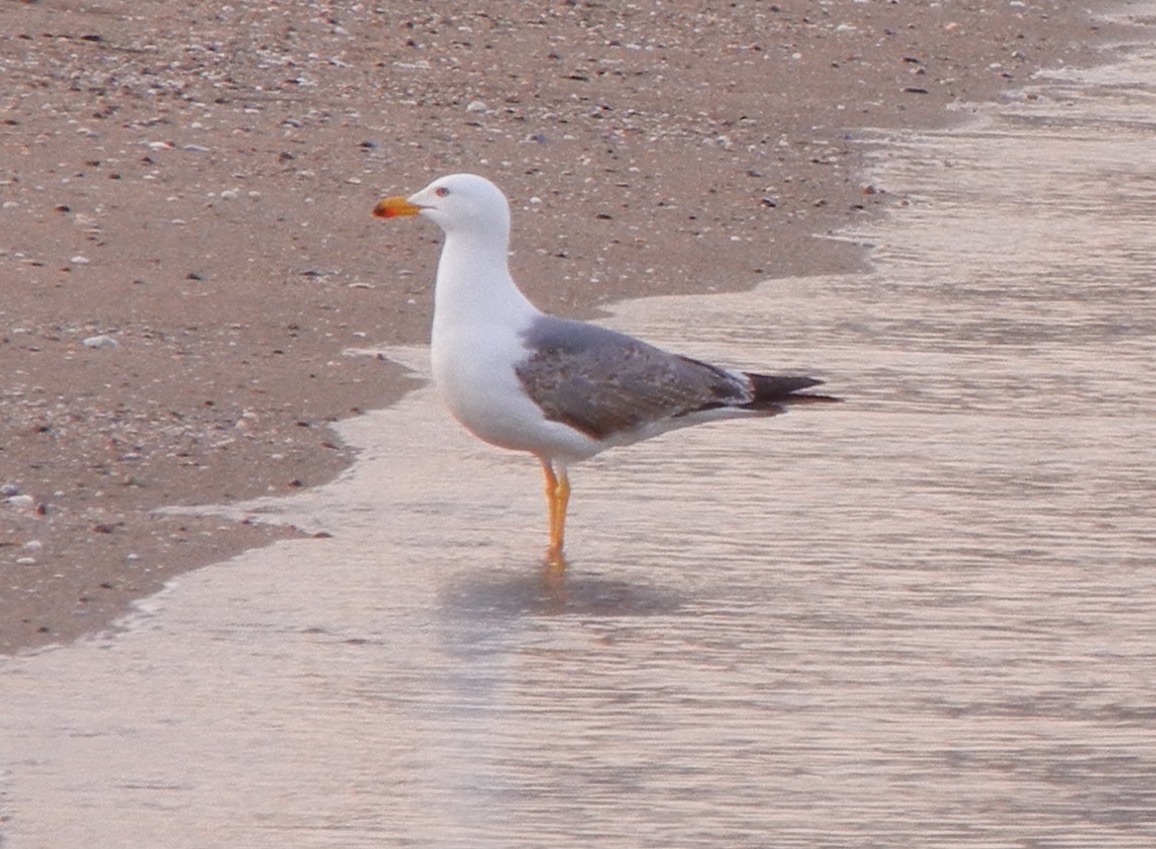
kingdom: Animalia
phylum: Chordata
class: Aves
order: Charadriiformes
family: Laridae
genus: Larus
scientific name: Larus michahellis
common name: Yellow-legged gull
